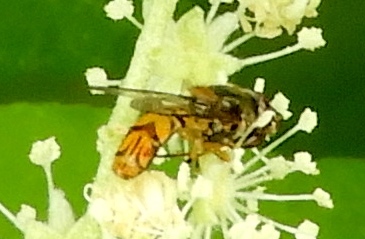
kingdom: Animalia
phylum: Arthropoda
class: Insecta
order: Diptera
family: Syrphidae
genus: Allograpta
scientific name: Allograpta
